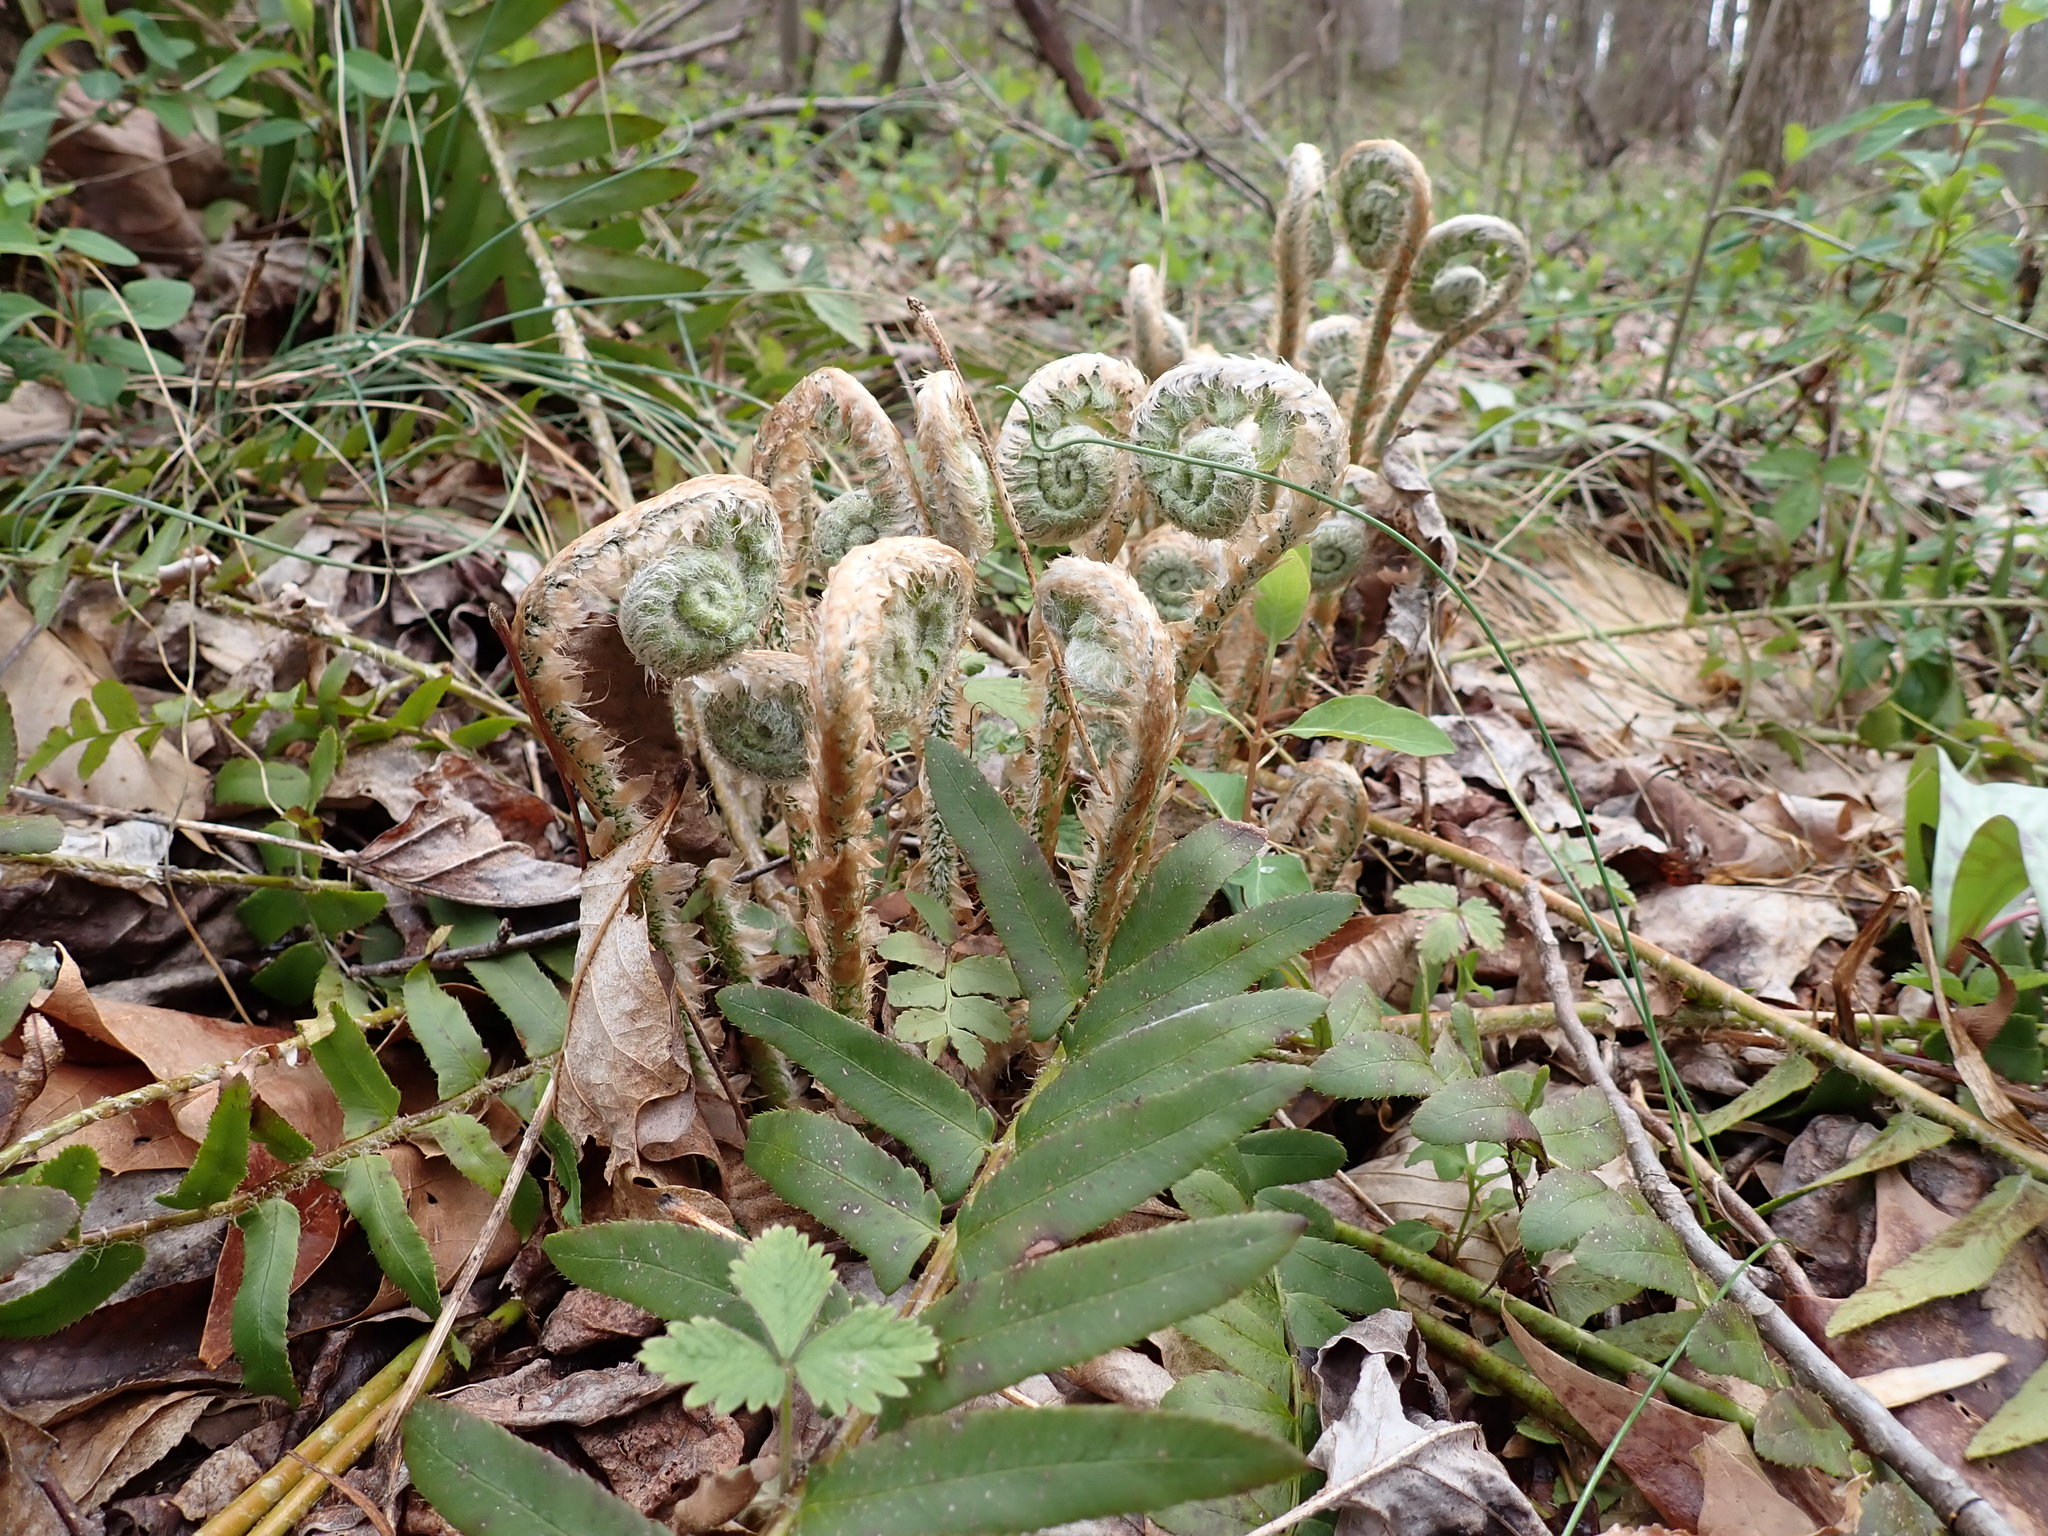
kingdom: Plantae
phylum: Tracheophyta
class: Polypodiopsida
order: Polypodiales
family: Dryopteridaceae
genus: Polystichum
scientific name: Polystichum acrostichoides
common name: Christmas fern
